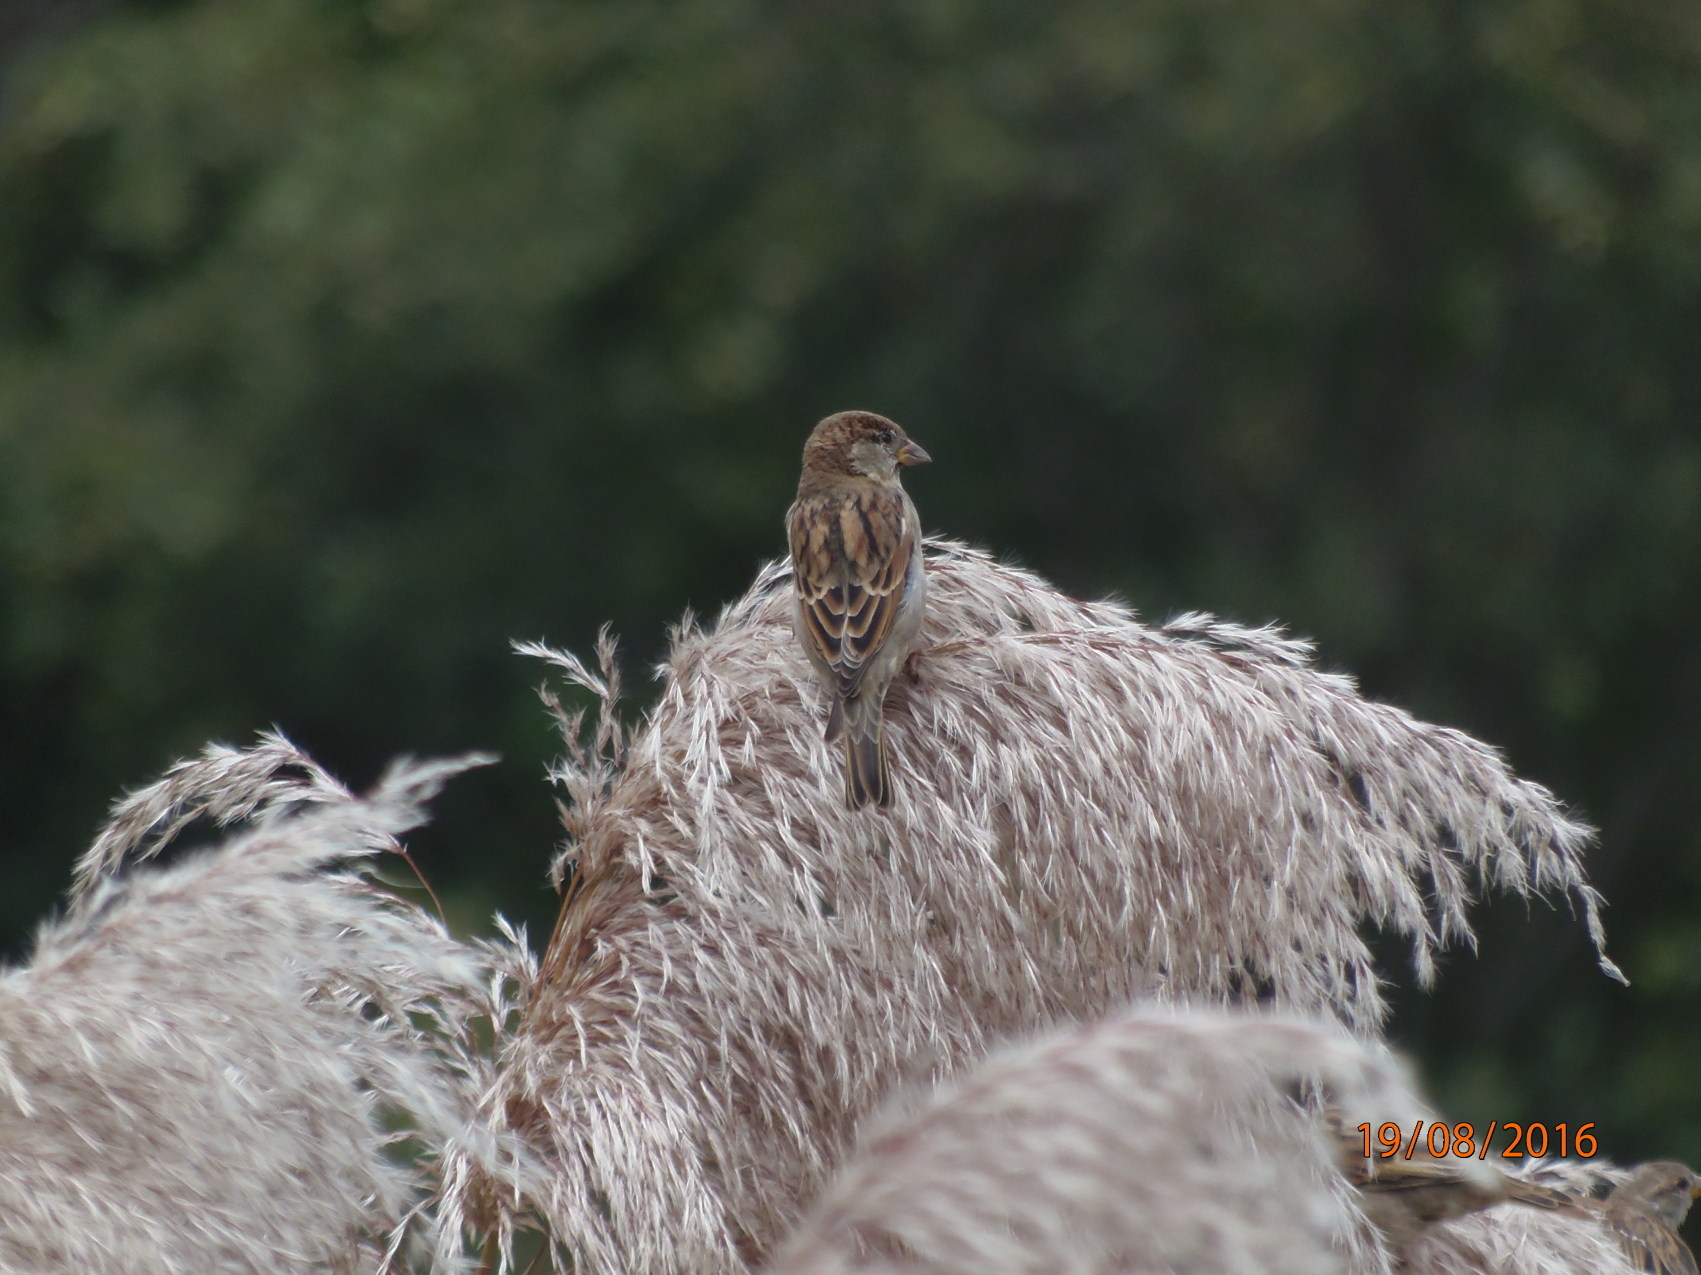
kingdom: Animalia
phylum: Chordata
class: Aves
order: Passeriformes
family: Passeridae
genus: Passer
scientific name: Passer domesticus
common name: House sparrow
